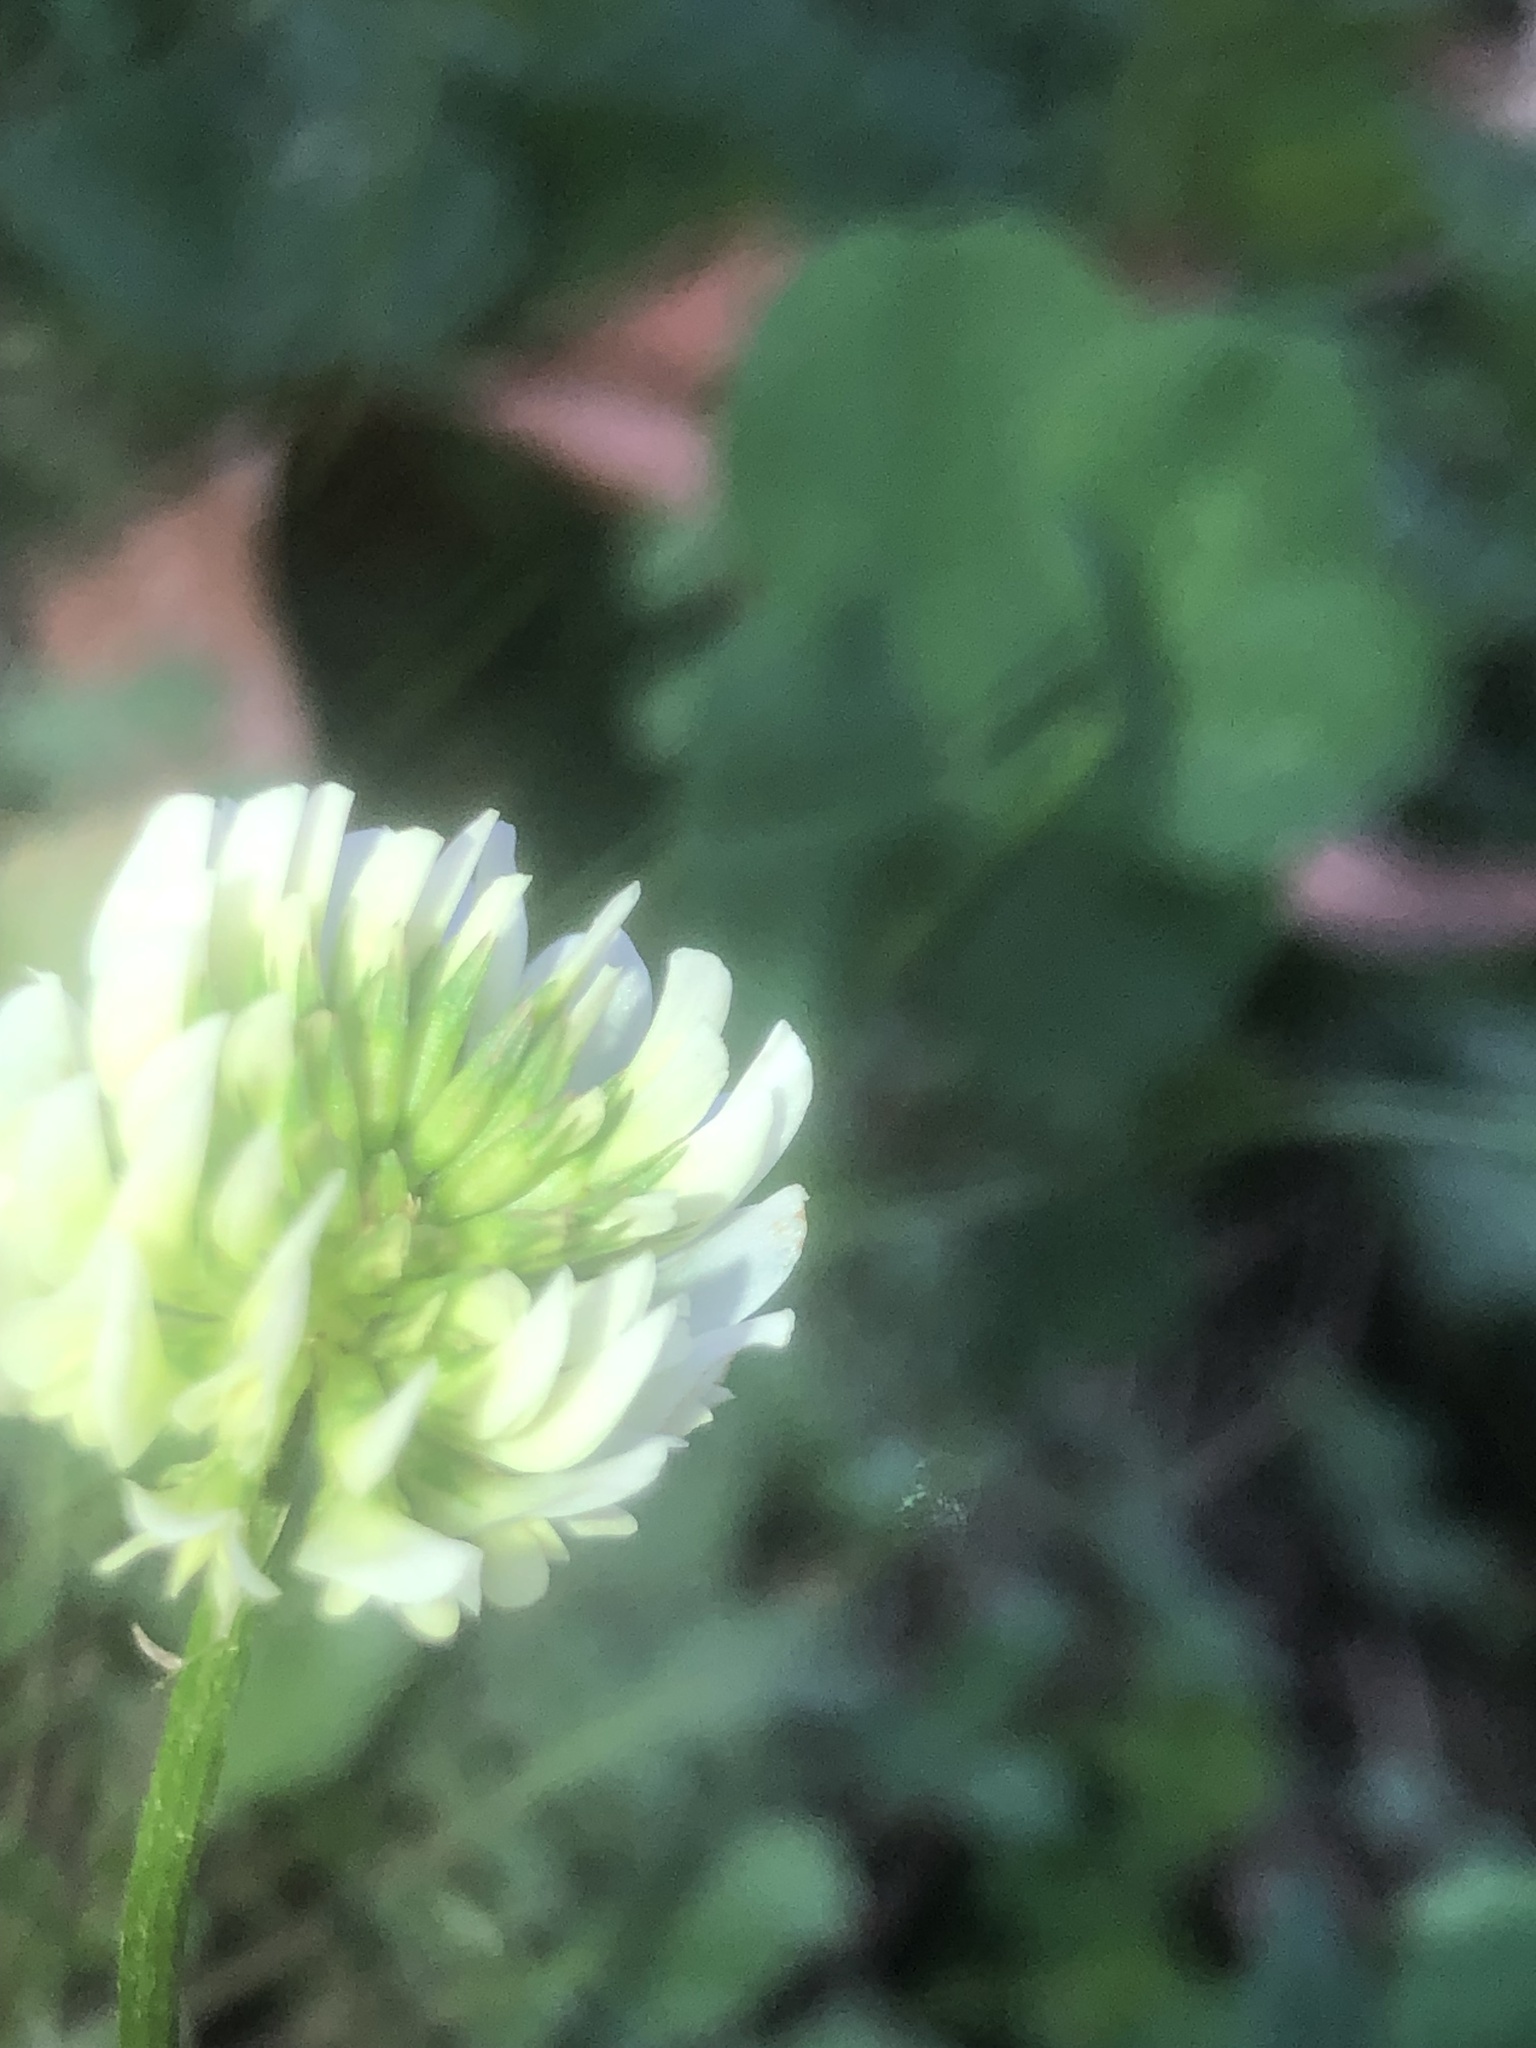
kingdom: Plantae
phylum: Tracheophyta
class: Magnoliopsida
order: Fabales
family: Fabaceae
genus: Trifolium
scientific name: Trifolium repens
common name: White clover
